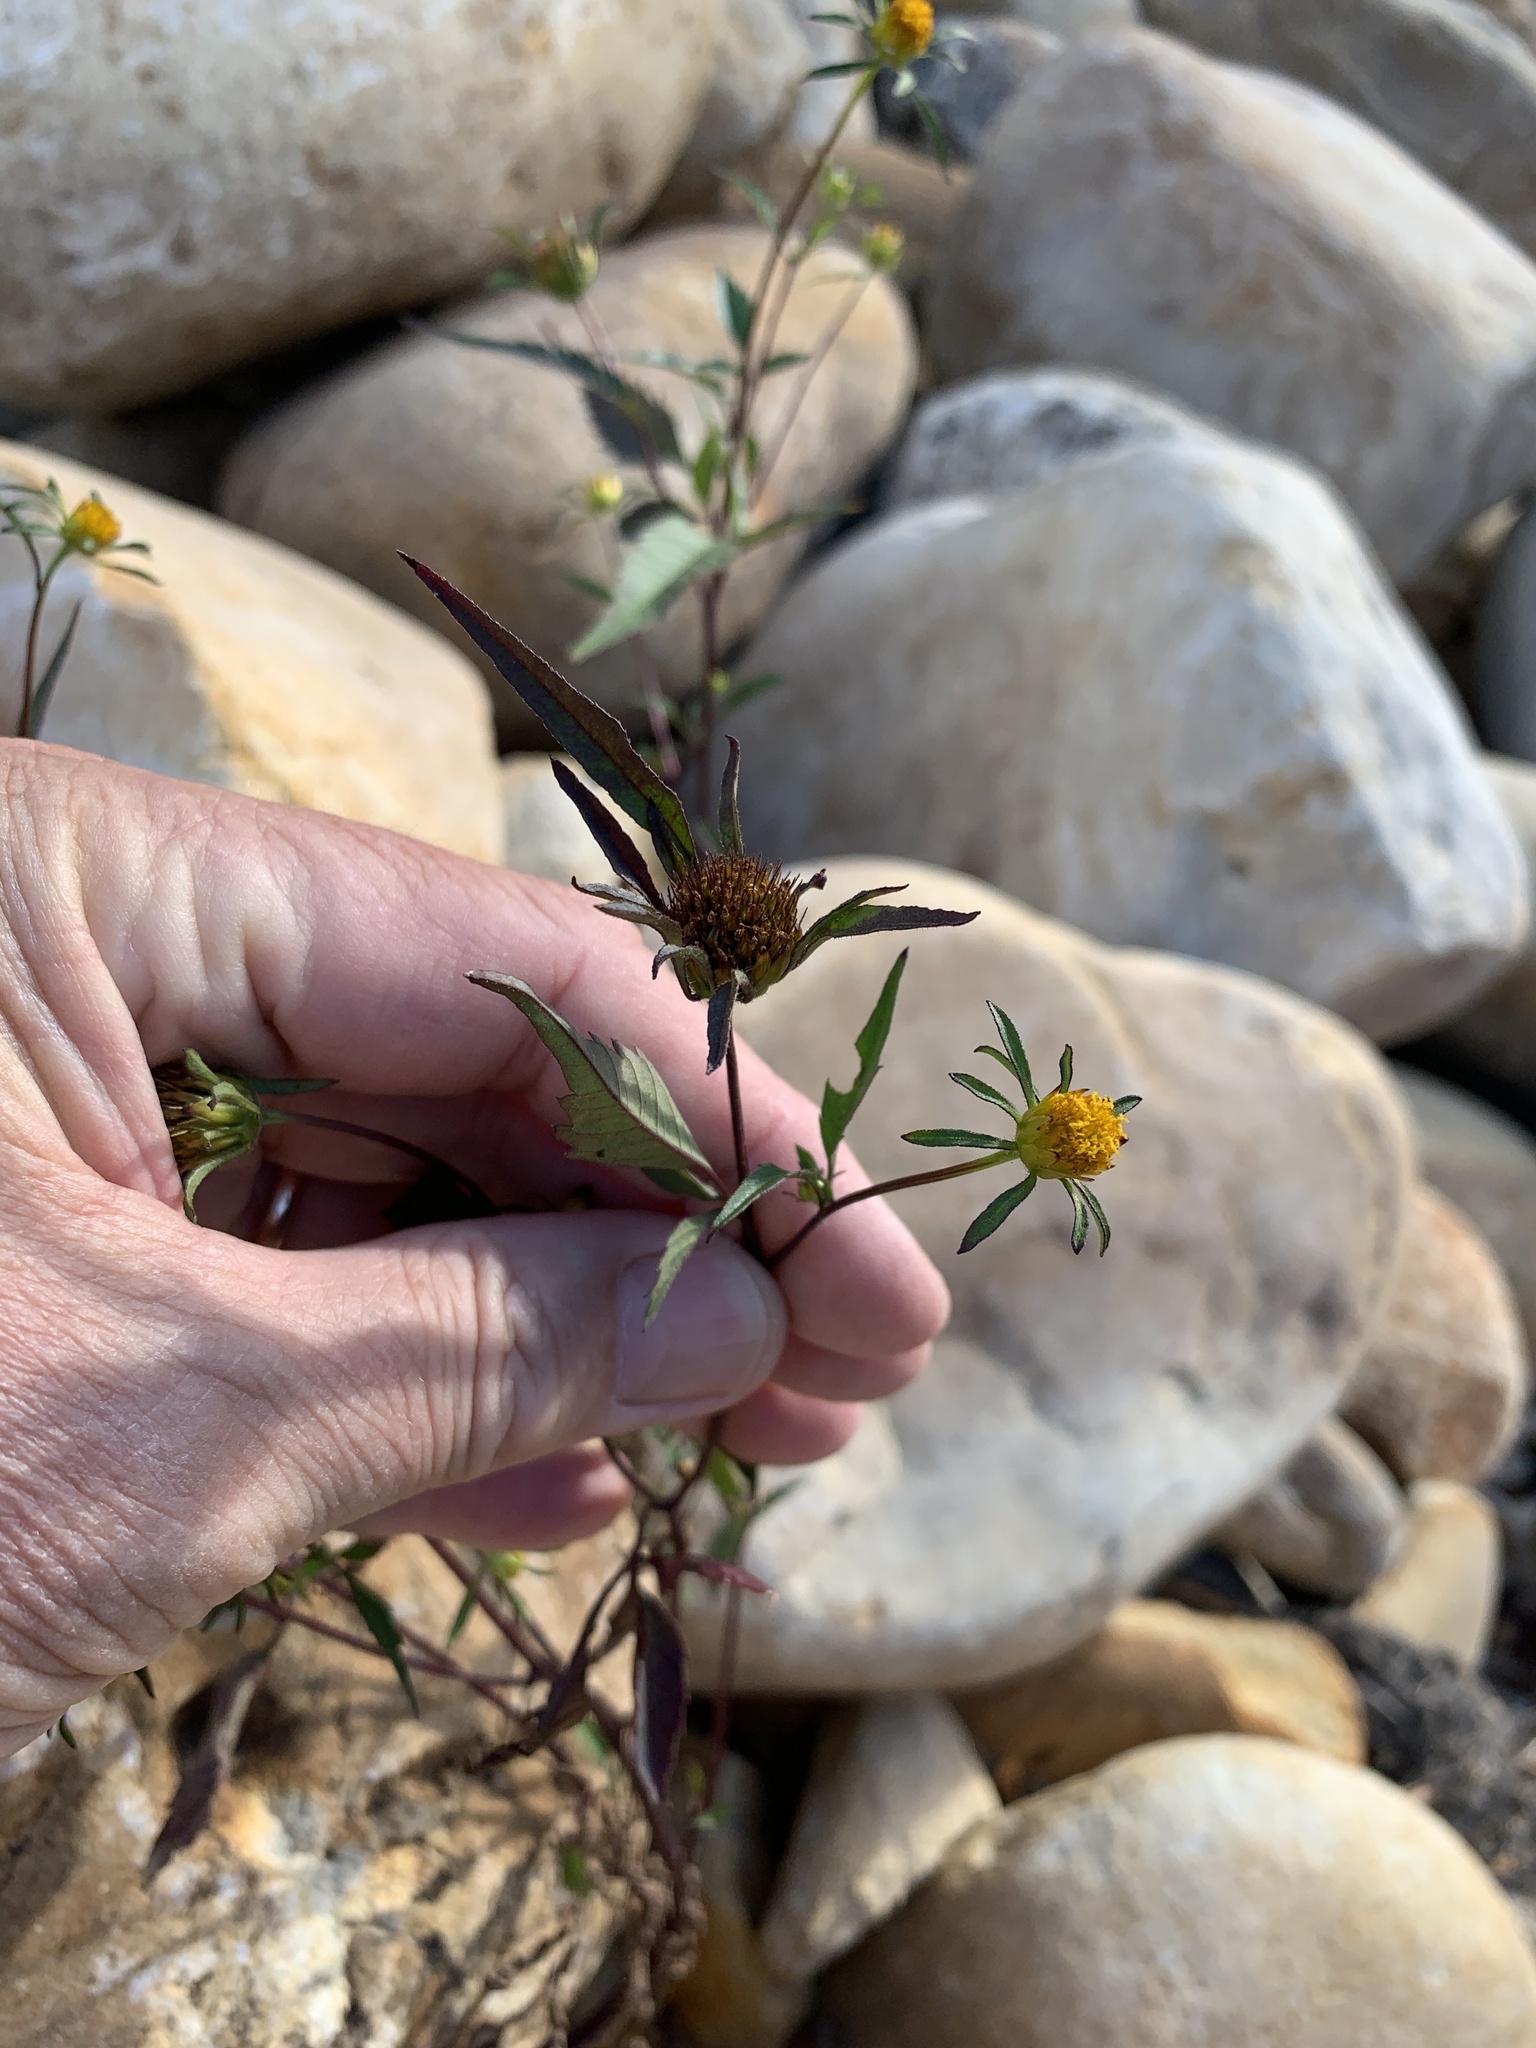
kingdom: Plantae
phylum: Tracheophyta
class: Magnoliopsida
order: Asterales
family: Asteraceae
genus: Bidens
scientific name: Bidens frondosa
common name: Beggarticks
